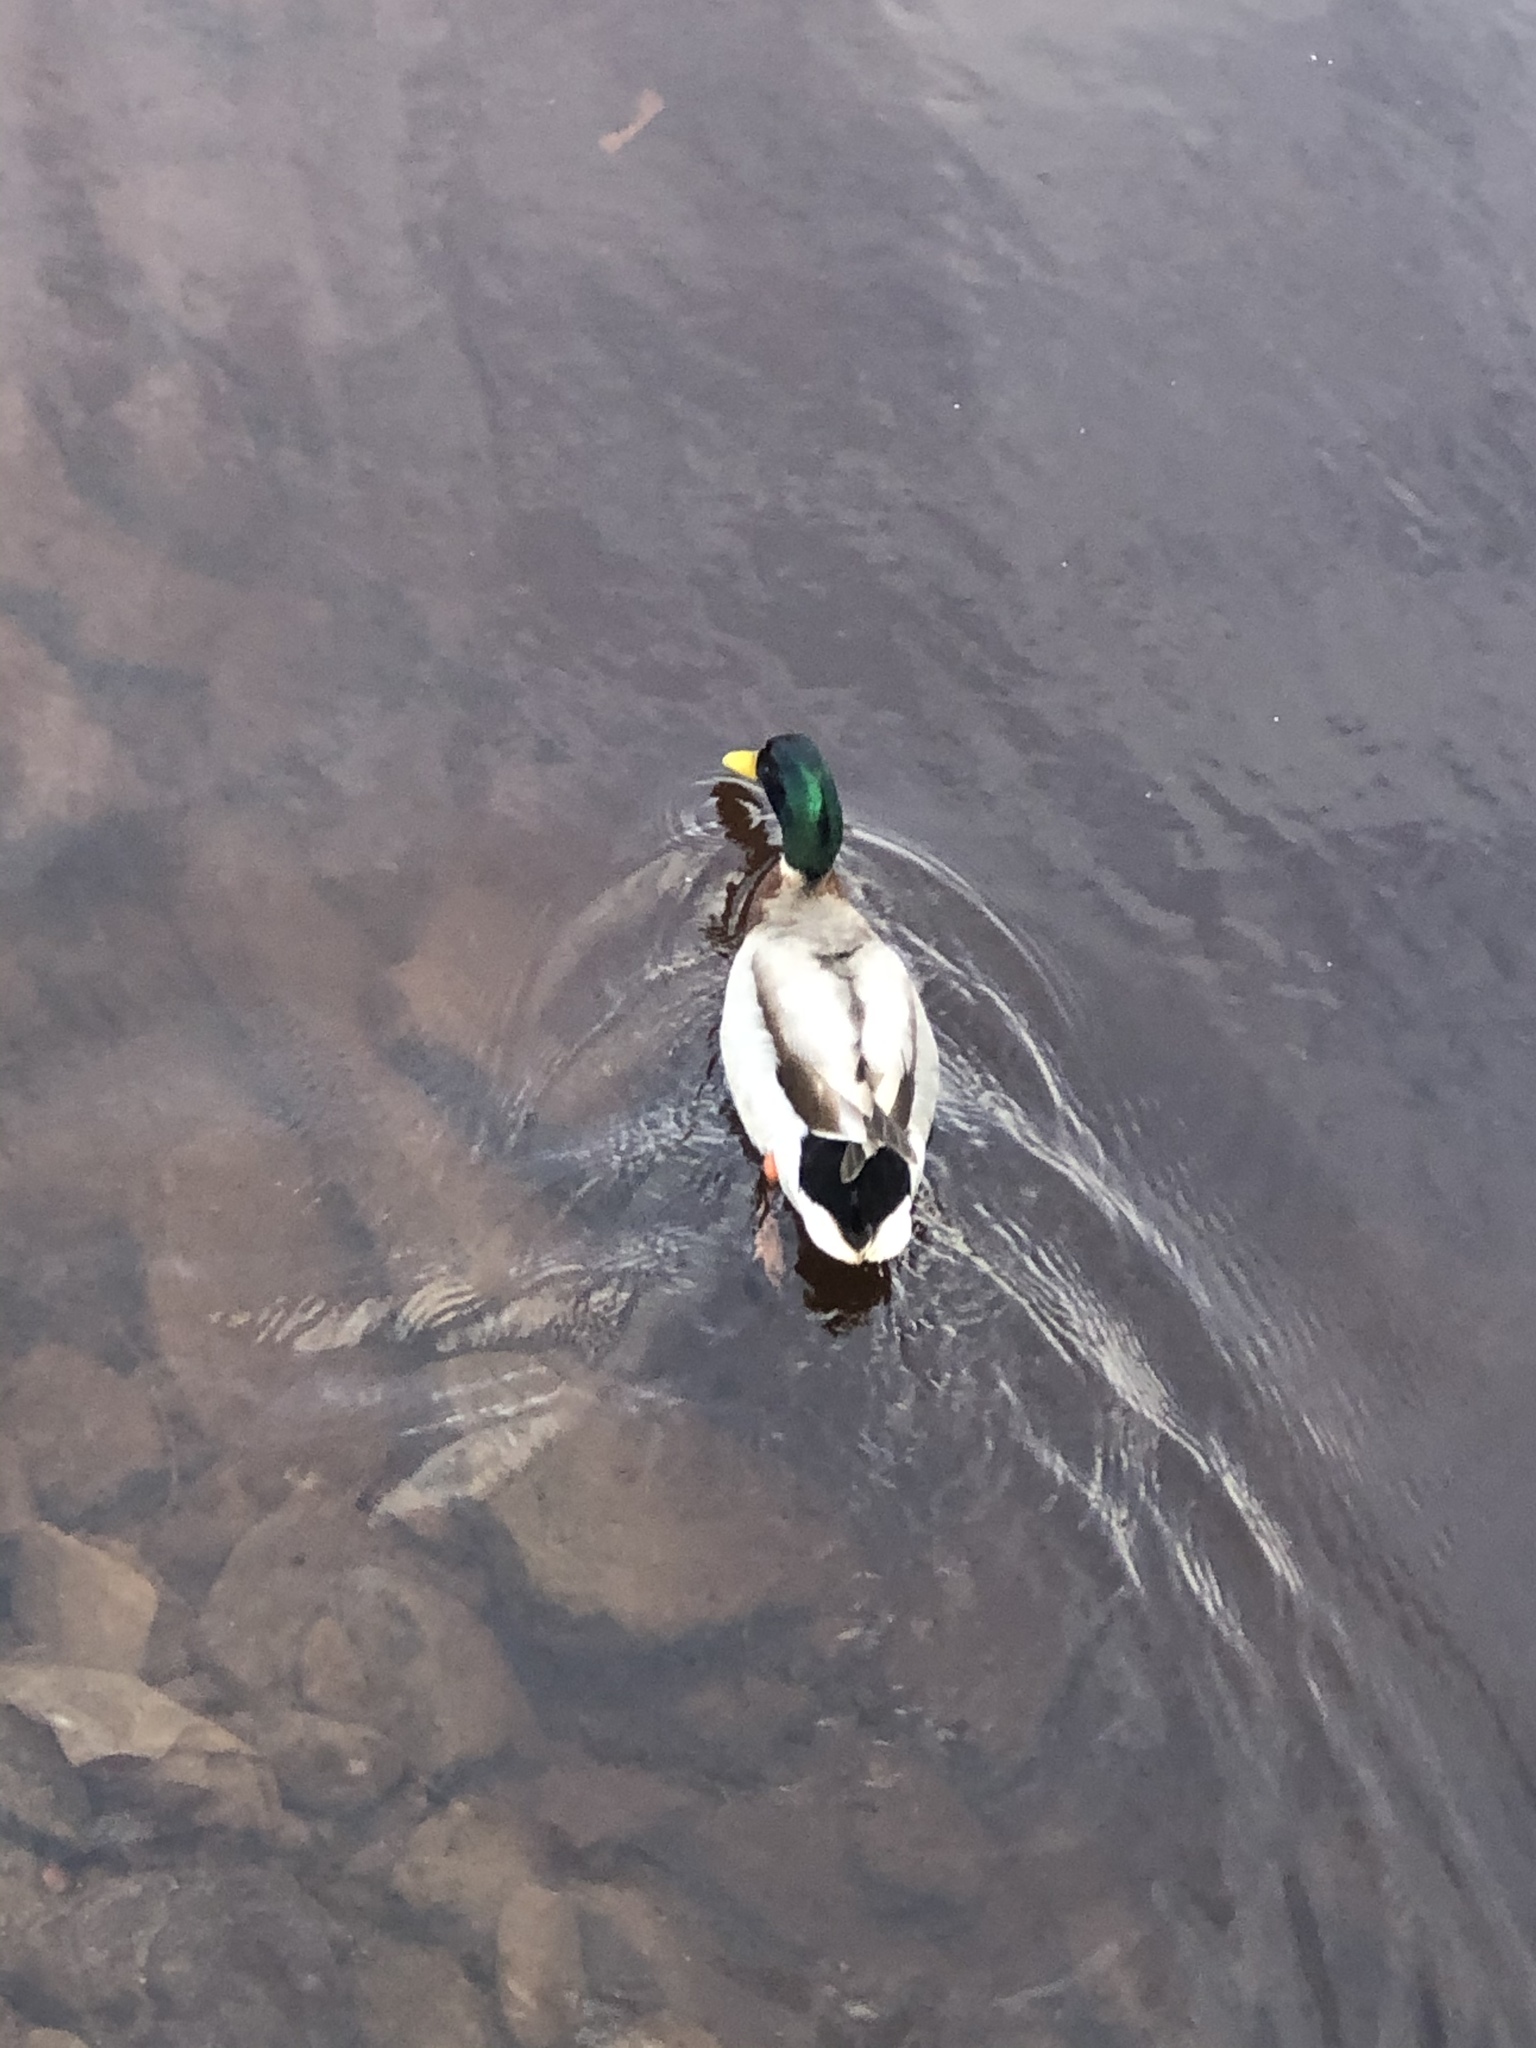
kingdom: Animalia
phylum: Chordata
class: Aves
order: Anseriformes
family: Anatidae
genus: Anas
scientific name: Anas platyrhynchos
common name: Mallard
